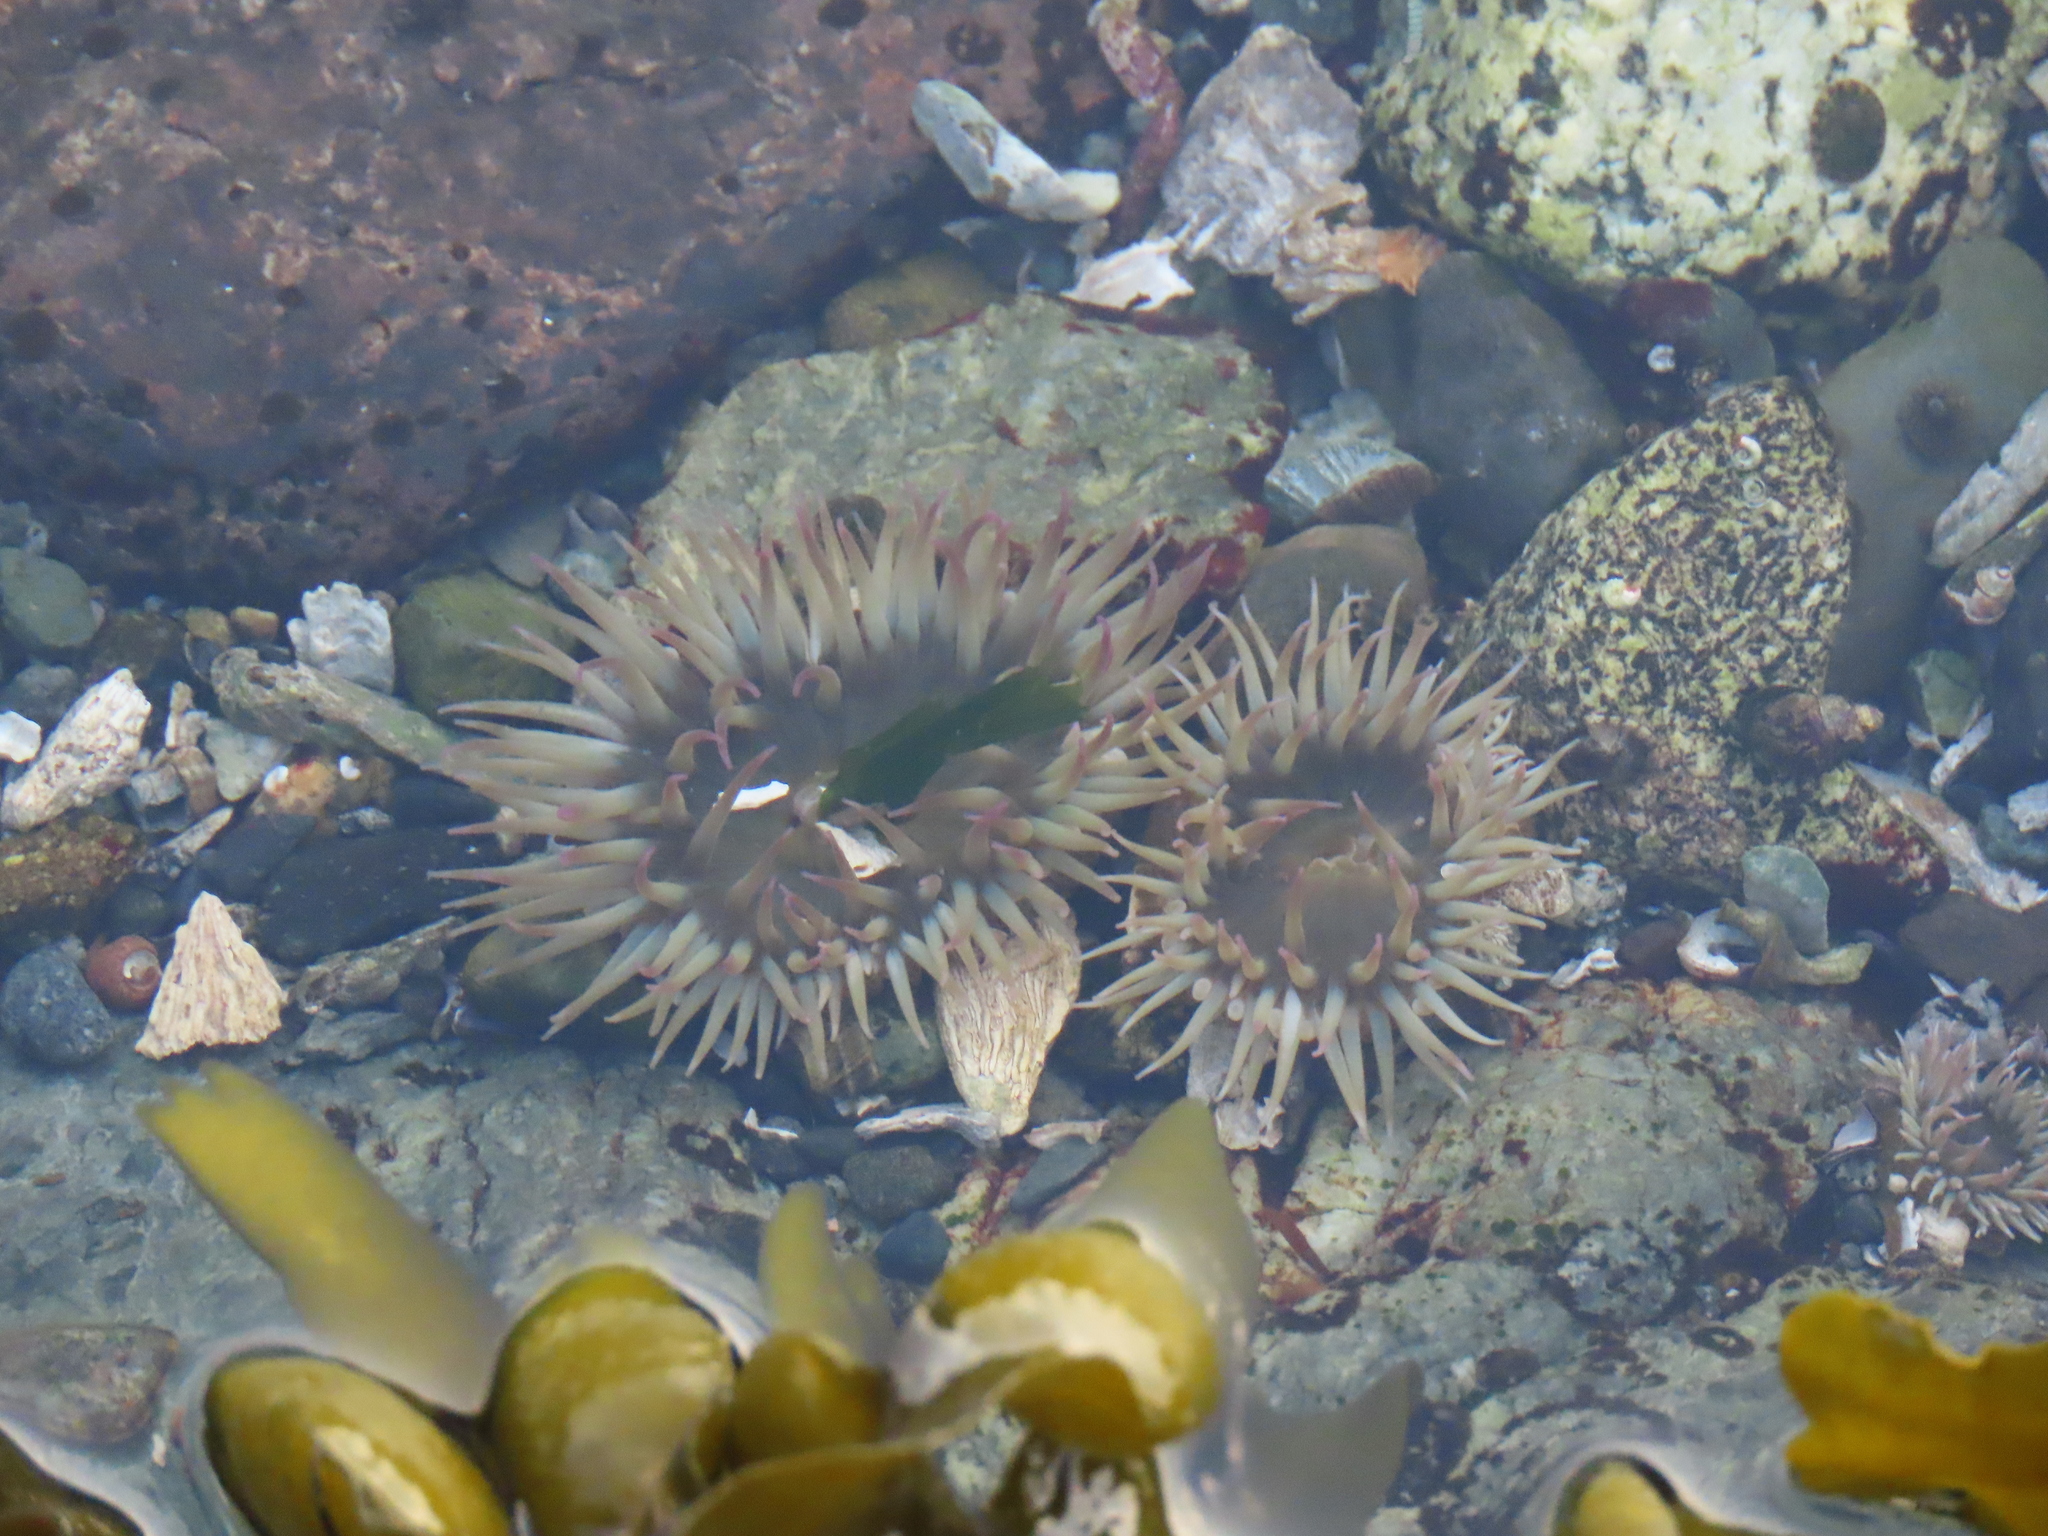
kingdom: Animalia
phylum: Cnidaria
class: Anthozoa
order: Actiniaria
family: Actiniidae
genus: Anthopleura
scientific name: Anthopleura elegantissima
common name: Clonal anemone
